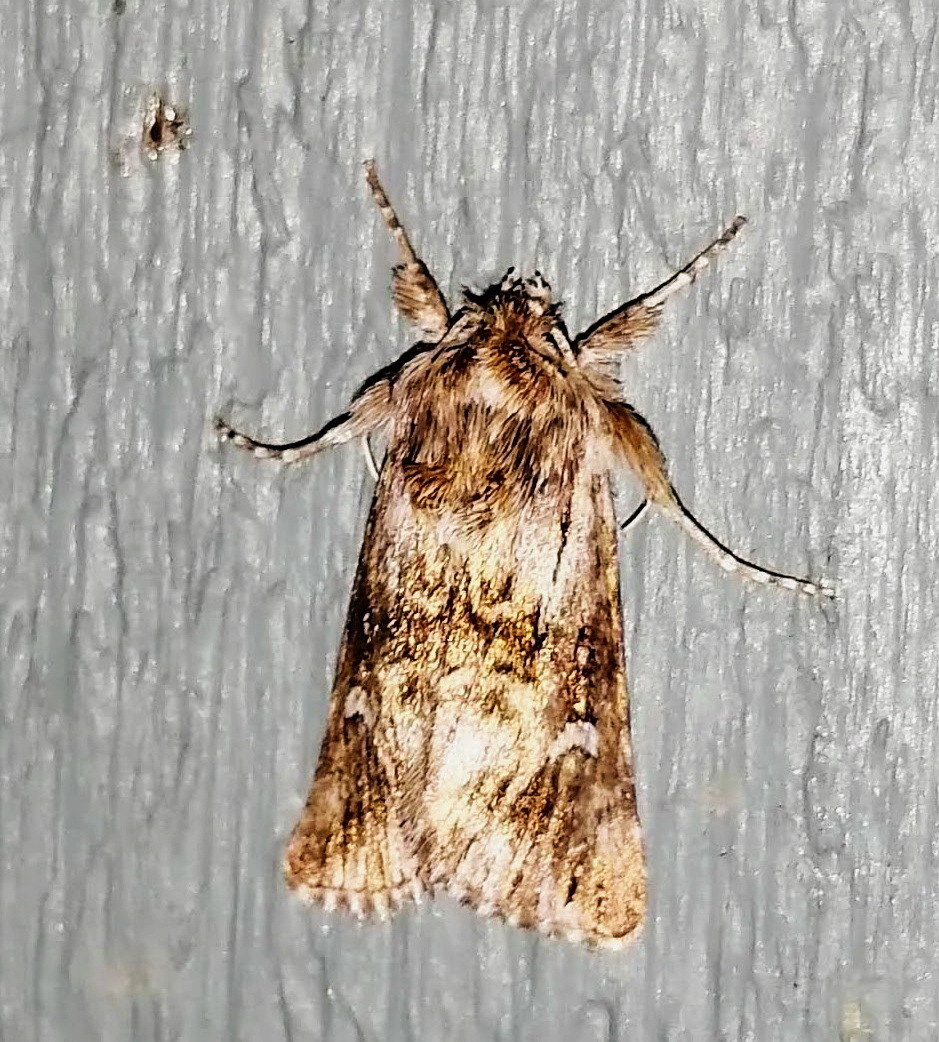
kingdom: Animalia
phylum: Arthropoda
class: Insecta
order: Lepidoptera
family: Noctuidae
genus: Calophasia
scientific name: Calophasia lunula
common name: Toadflax brocade
